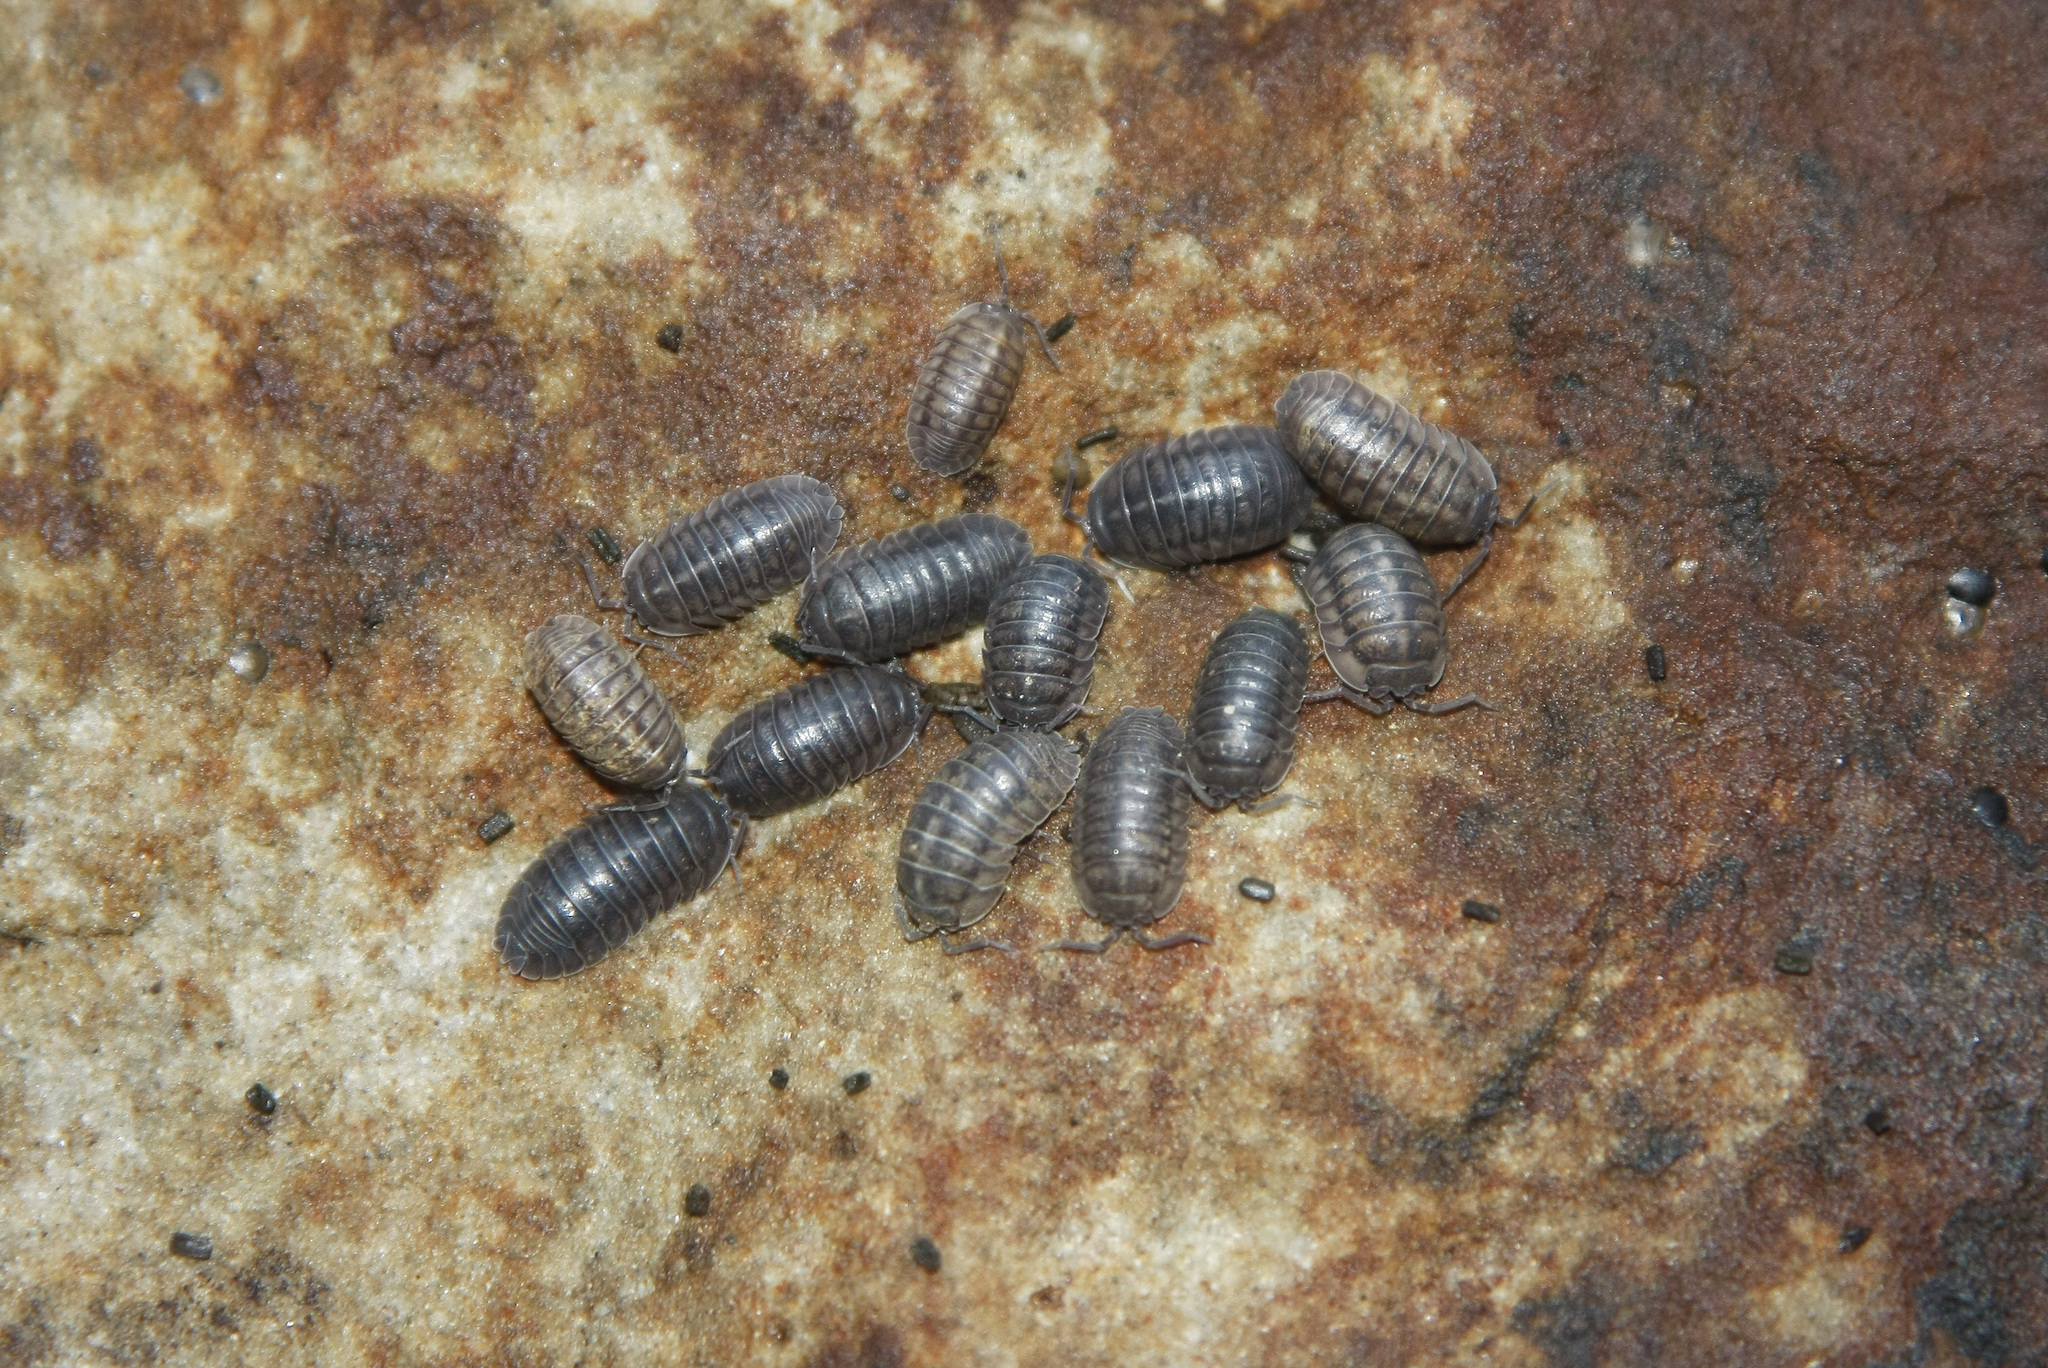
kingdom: Animalia
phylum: Arthropoda
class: Malacostraca
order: Isopoda
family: Armadillidiidae
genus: Armadillidium
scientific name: Armadillidium nasatum
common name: Isopod
